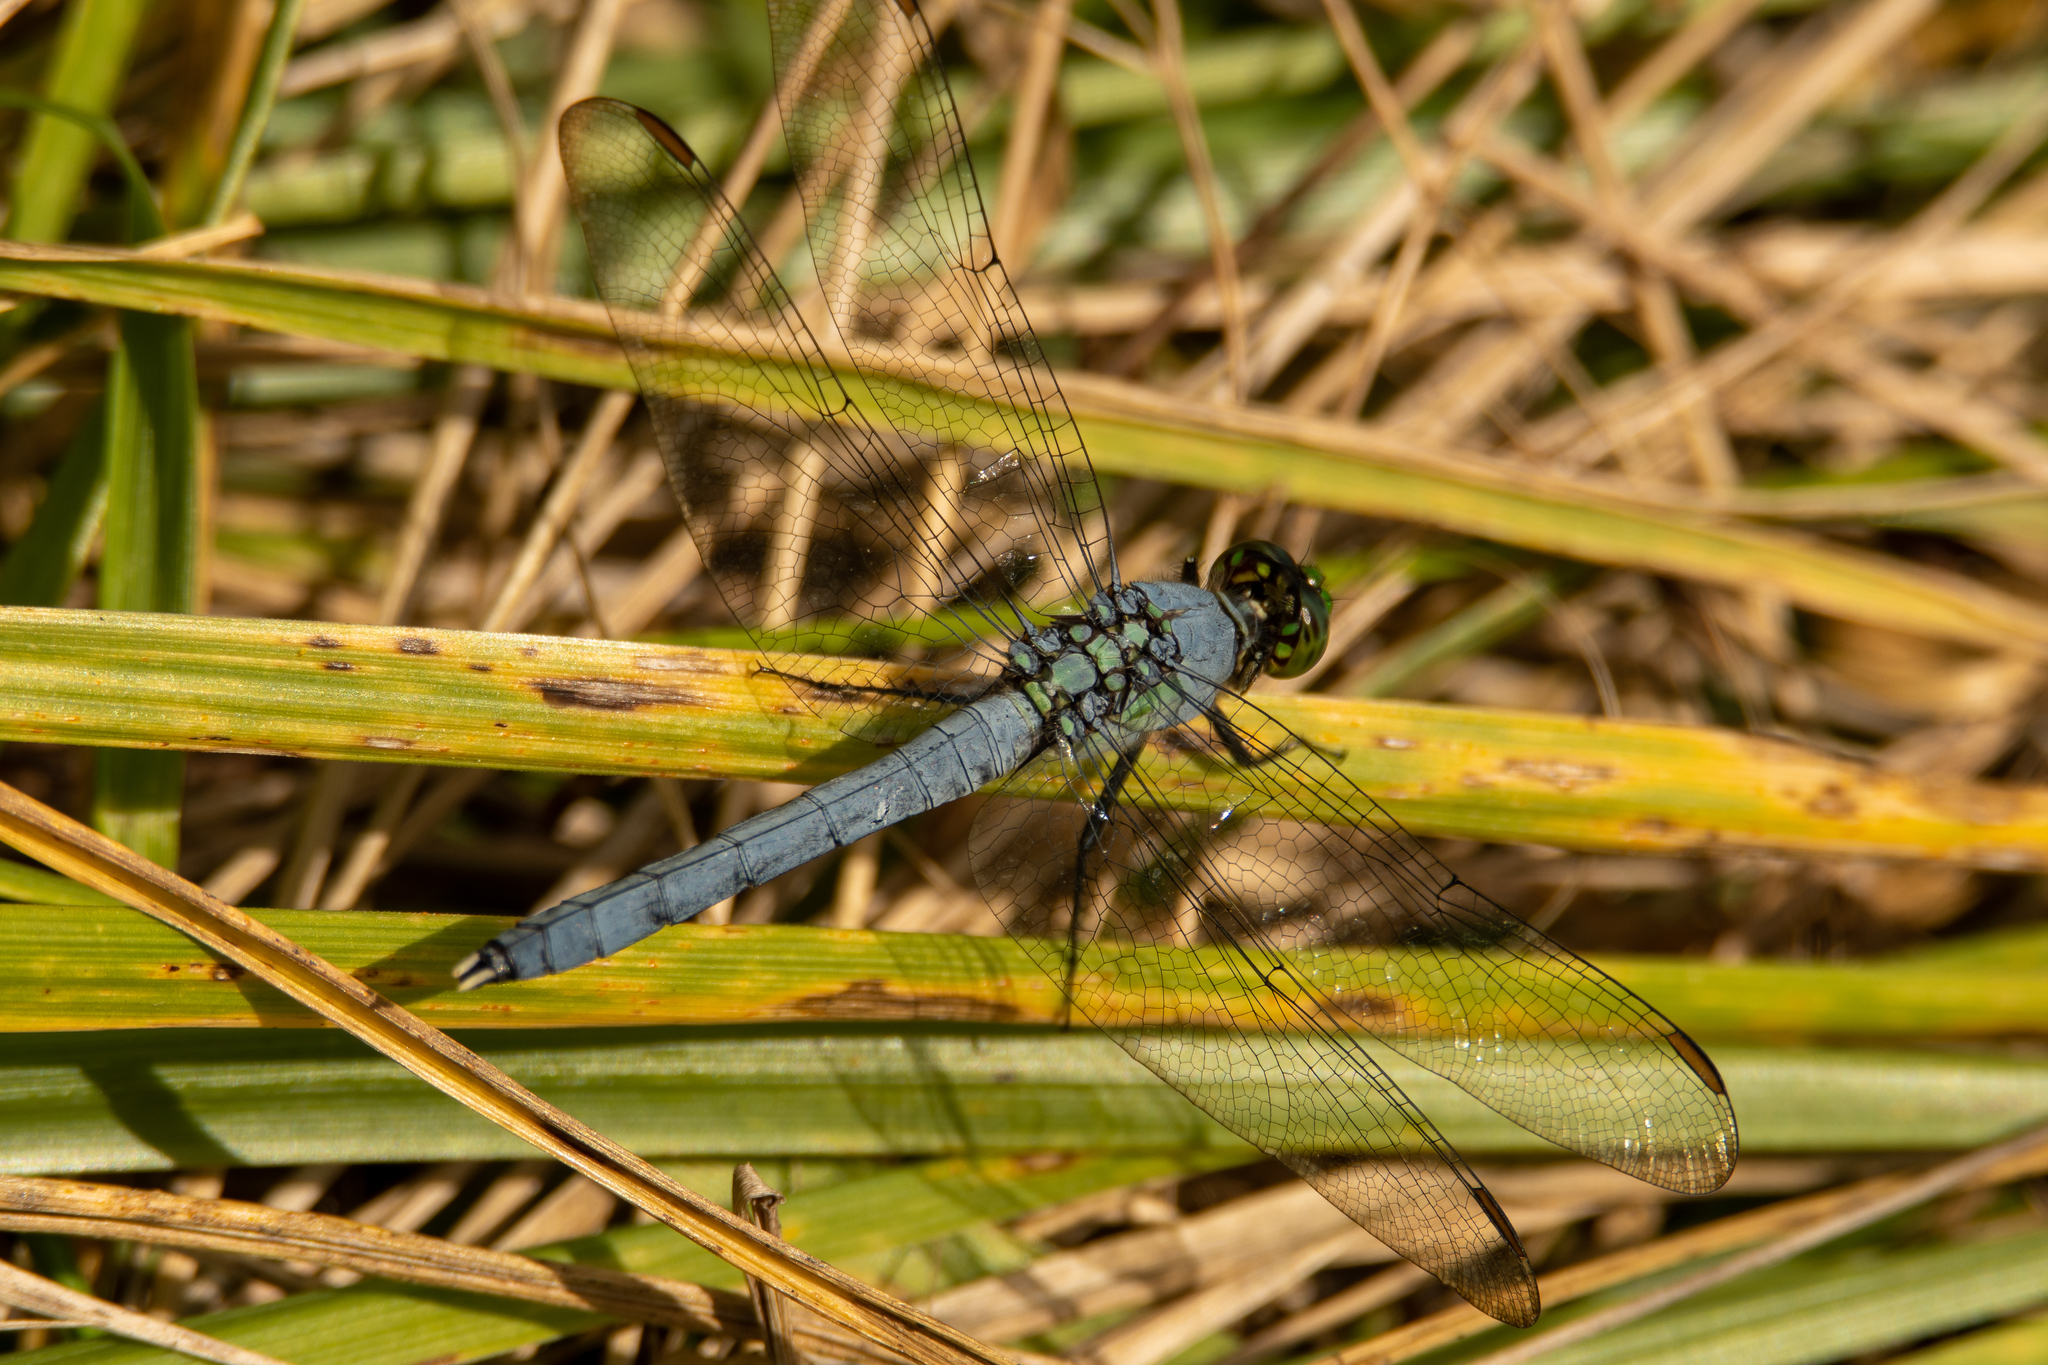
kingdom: Animalia
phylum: Arthropoda
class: Insecta
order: Odonata
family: Libellulidae
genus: Erythemis
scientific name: Erythemis simplicicollis
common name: Eastern pondhawk
